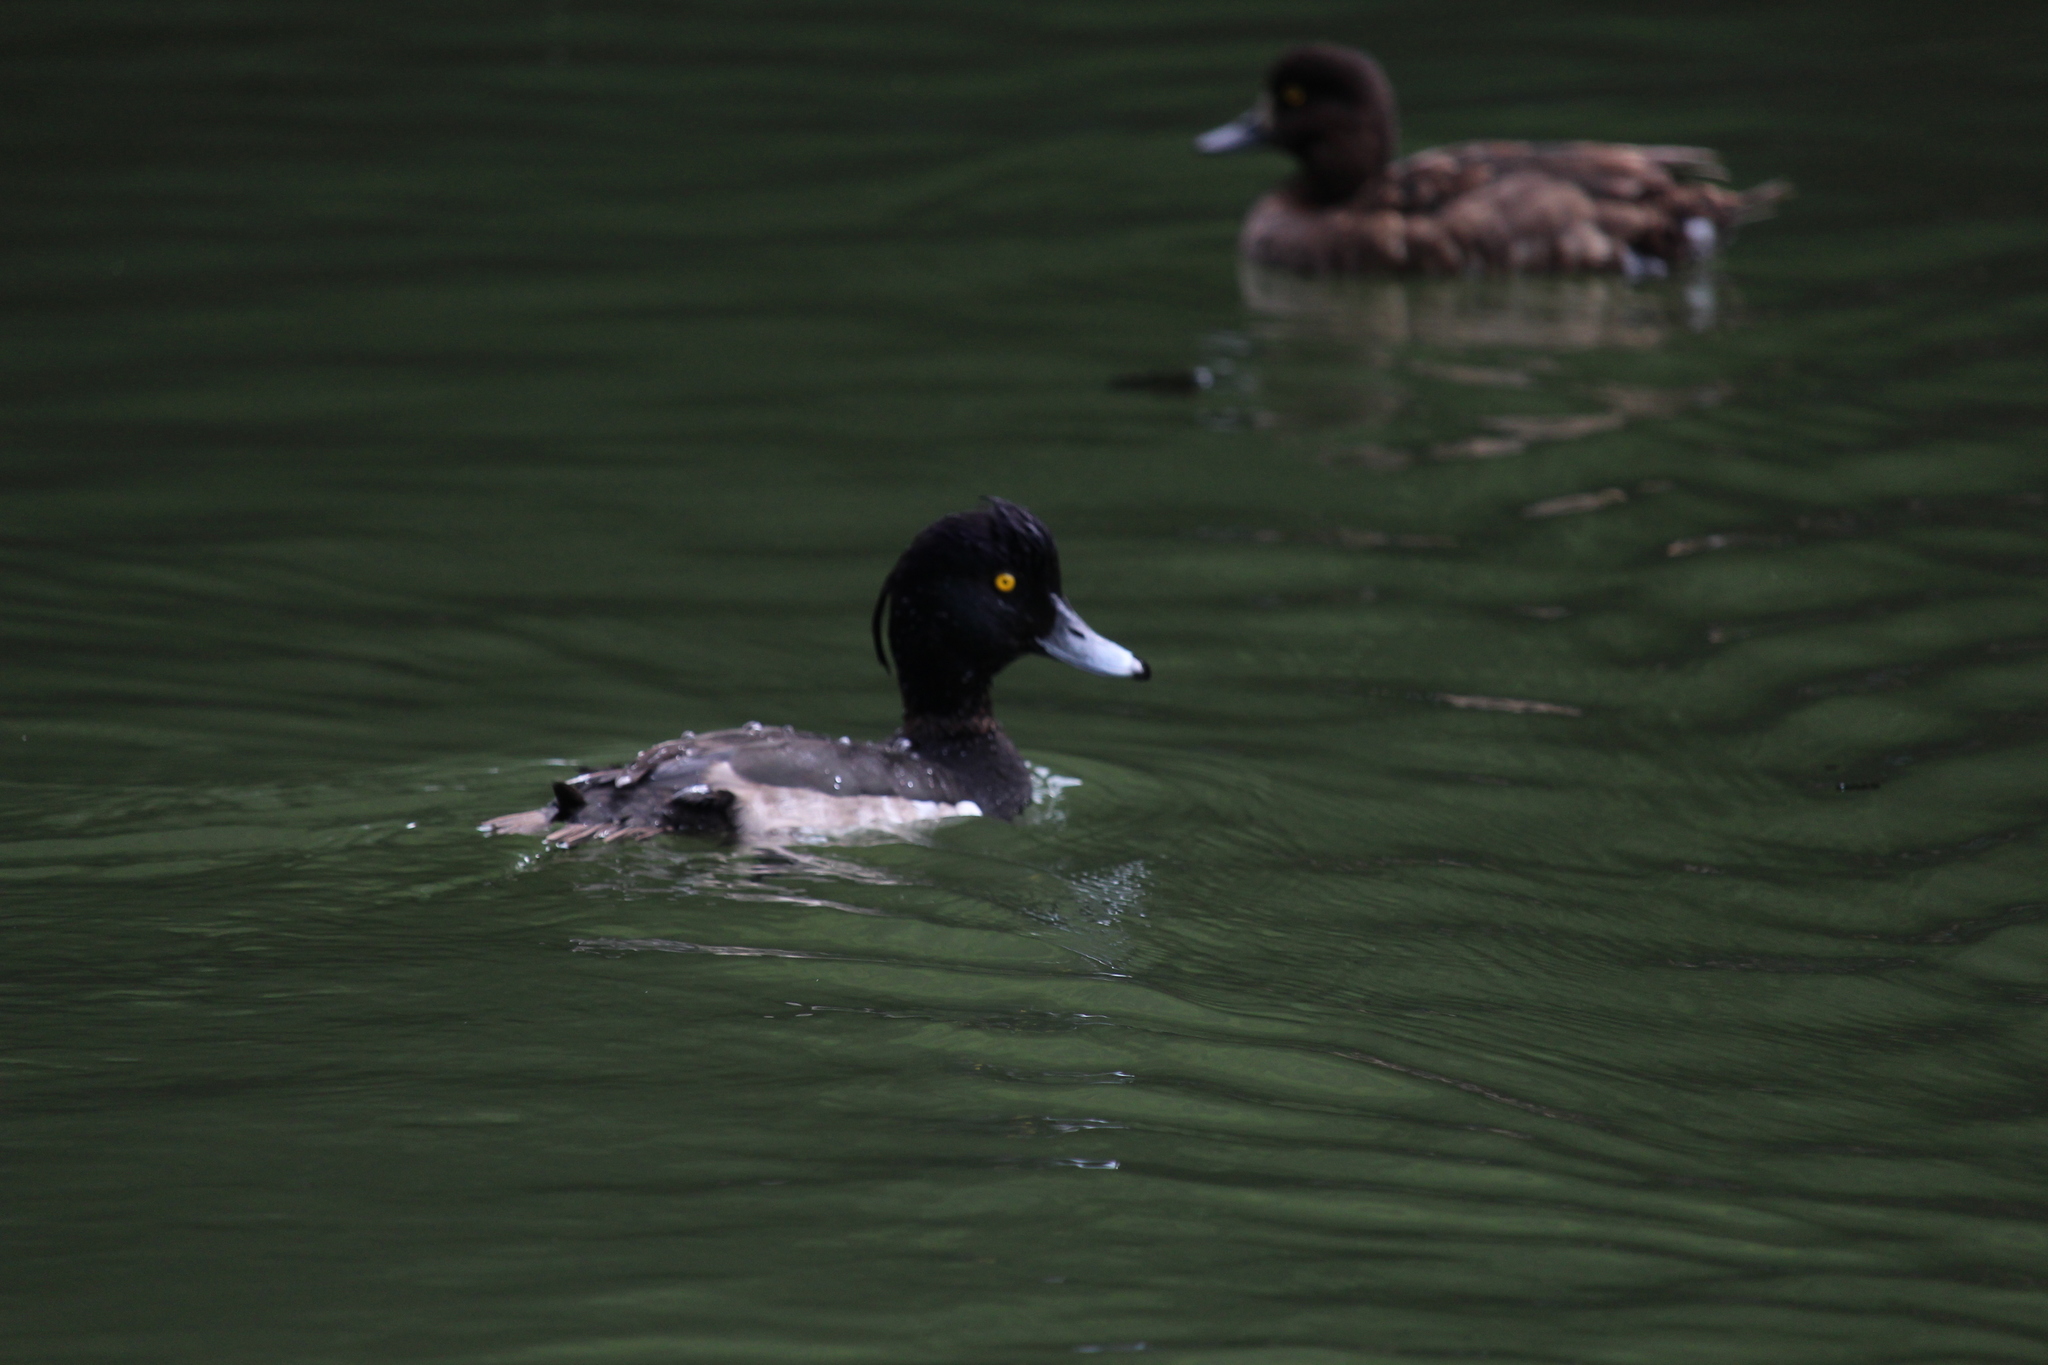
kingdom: Animalia
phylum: Chordata
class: Aves
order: Anseriformes
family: Anatidae
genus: Aythya
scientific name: Aythya fuligula
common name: Tufted duck
